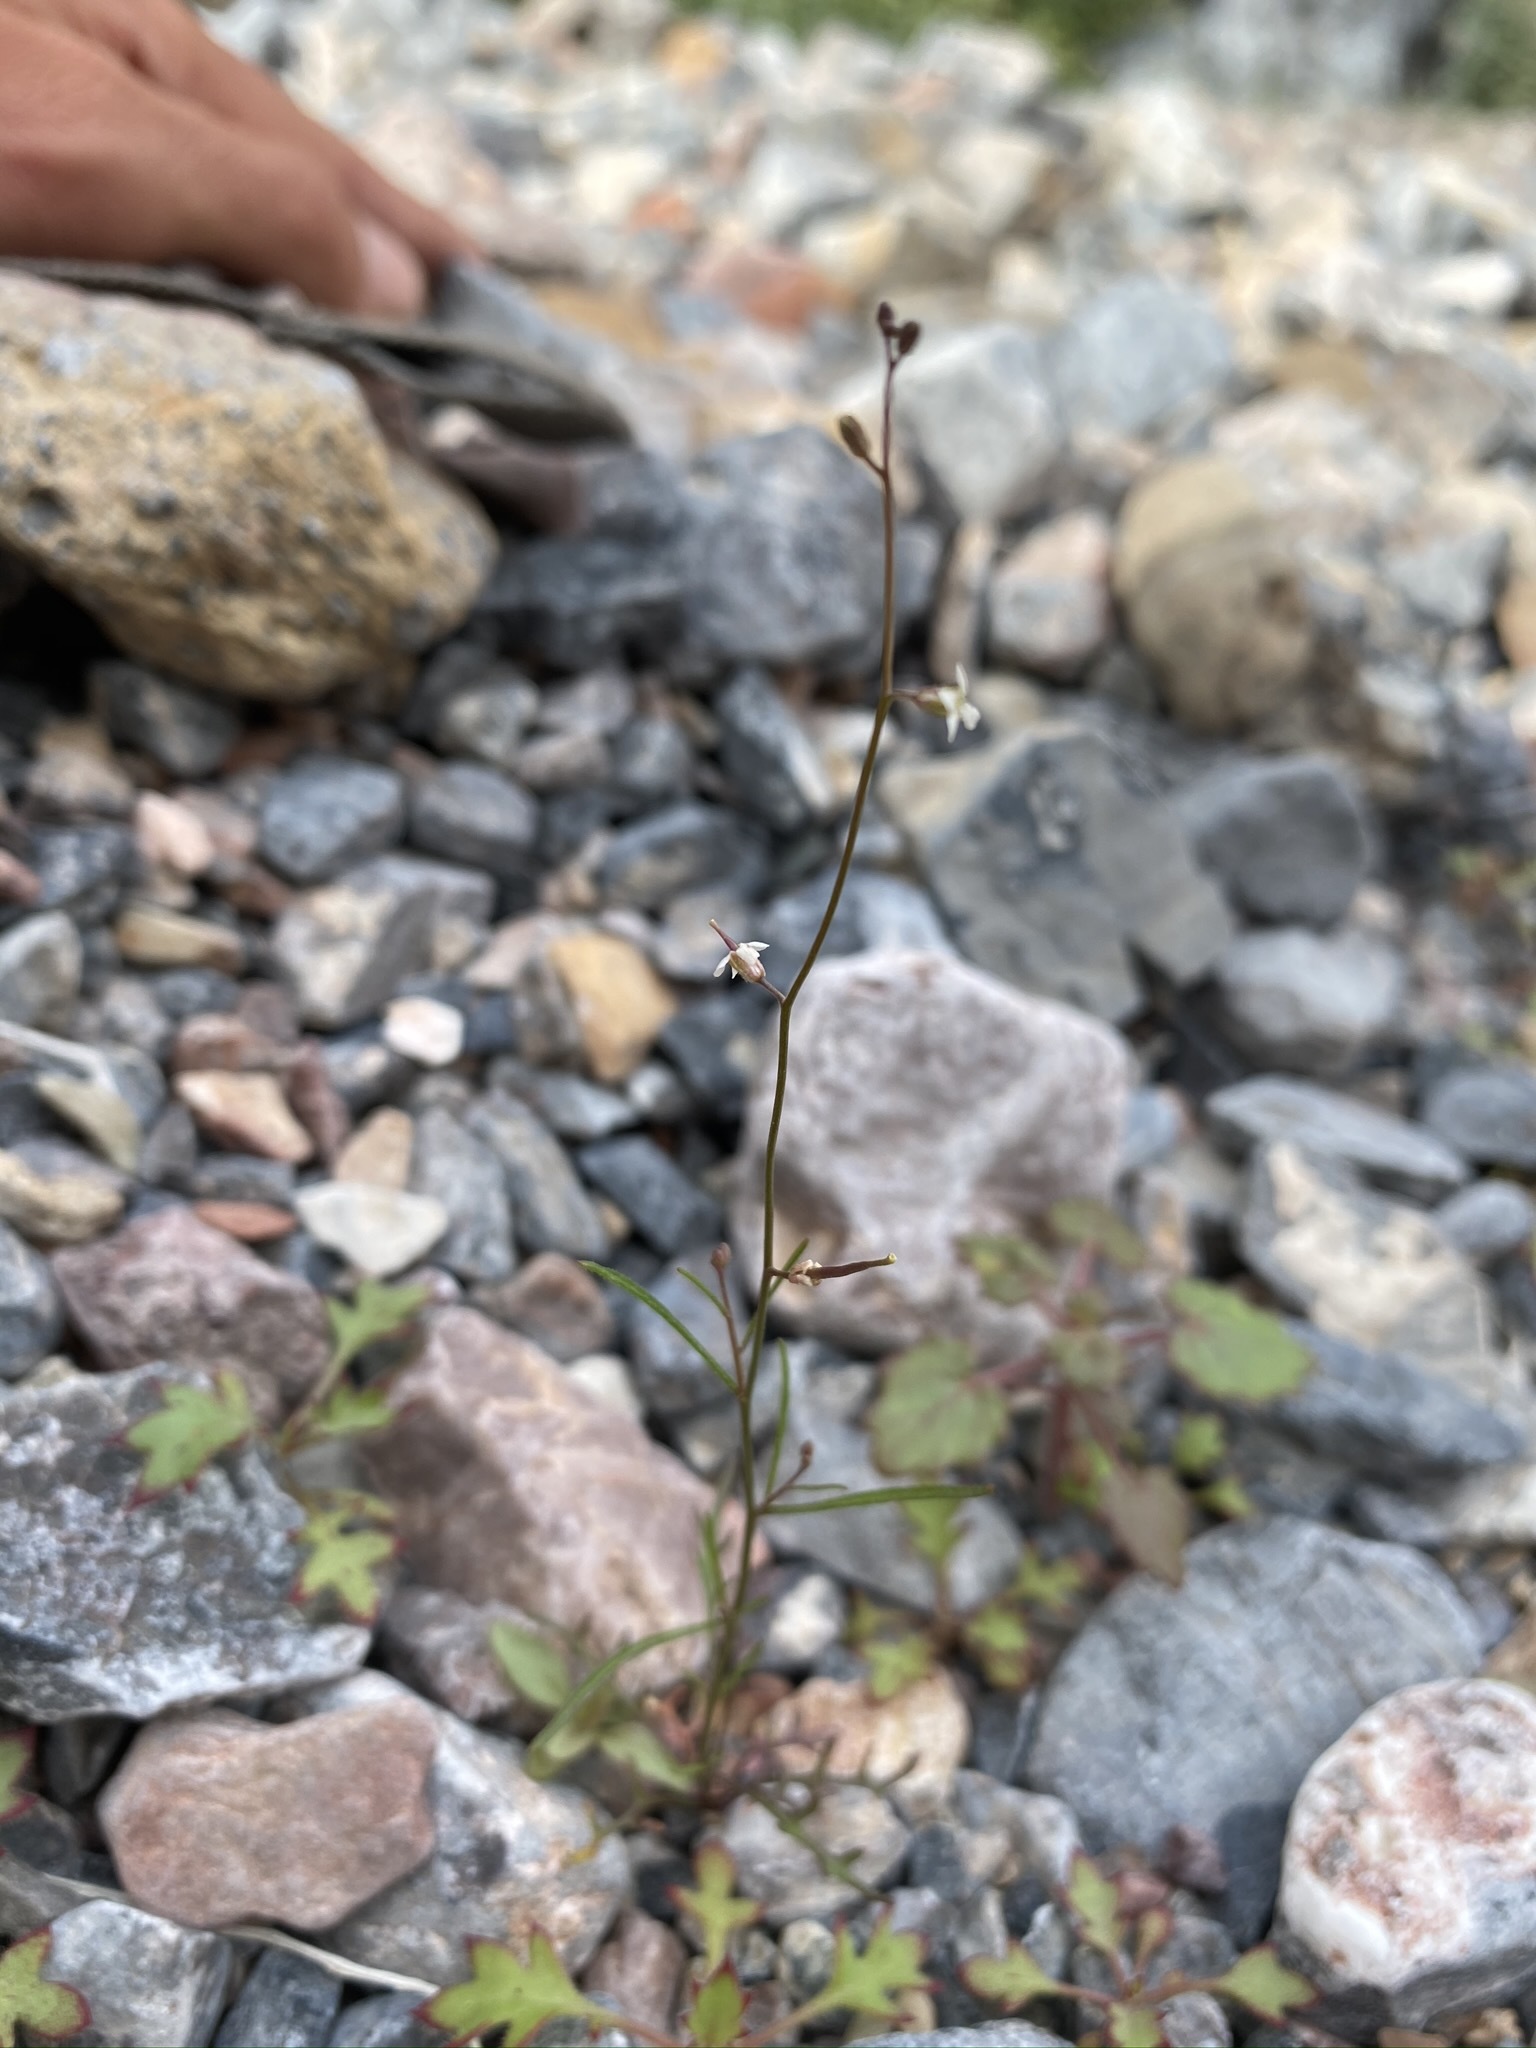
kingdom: Plantae
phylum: Tracheophyta
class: Magnoliopsida
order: Brassicales
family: Brassicaceae
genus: Sibara
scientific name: Sibara deserti
